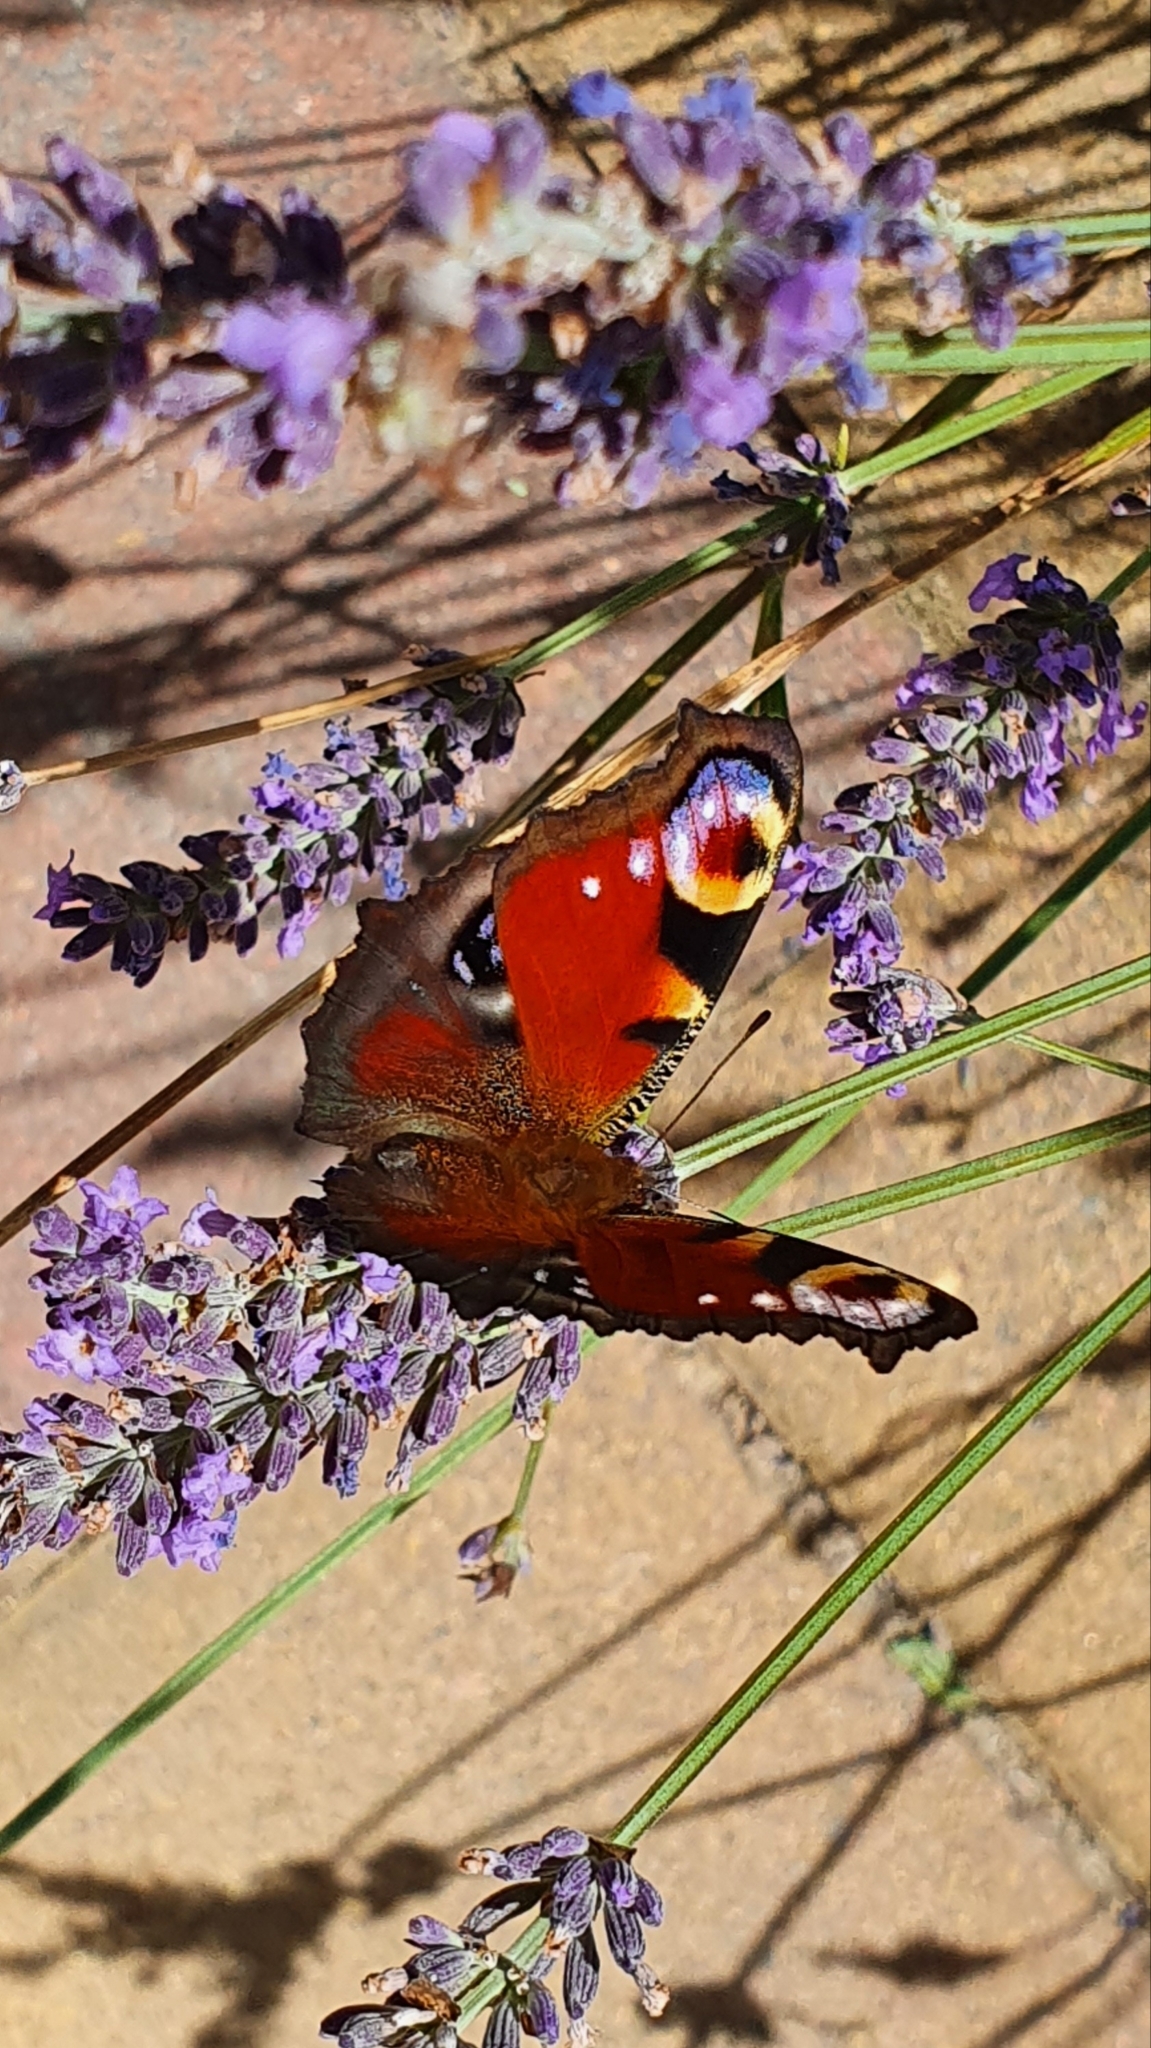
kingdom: Animalia
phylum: Arthropoda
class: Insecta
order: Lepidoptera
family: Nymphalidae
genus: Aglais
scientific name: Aglais io
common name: Peacock
